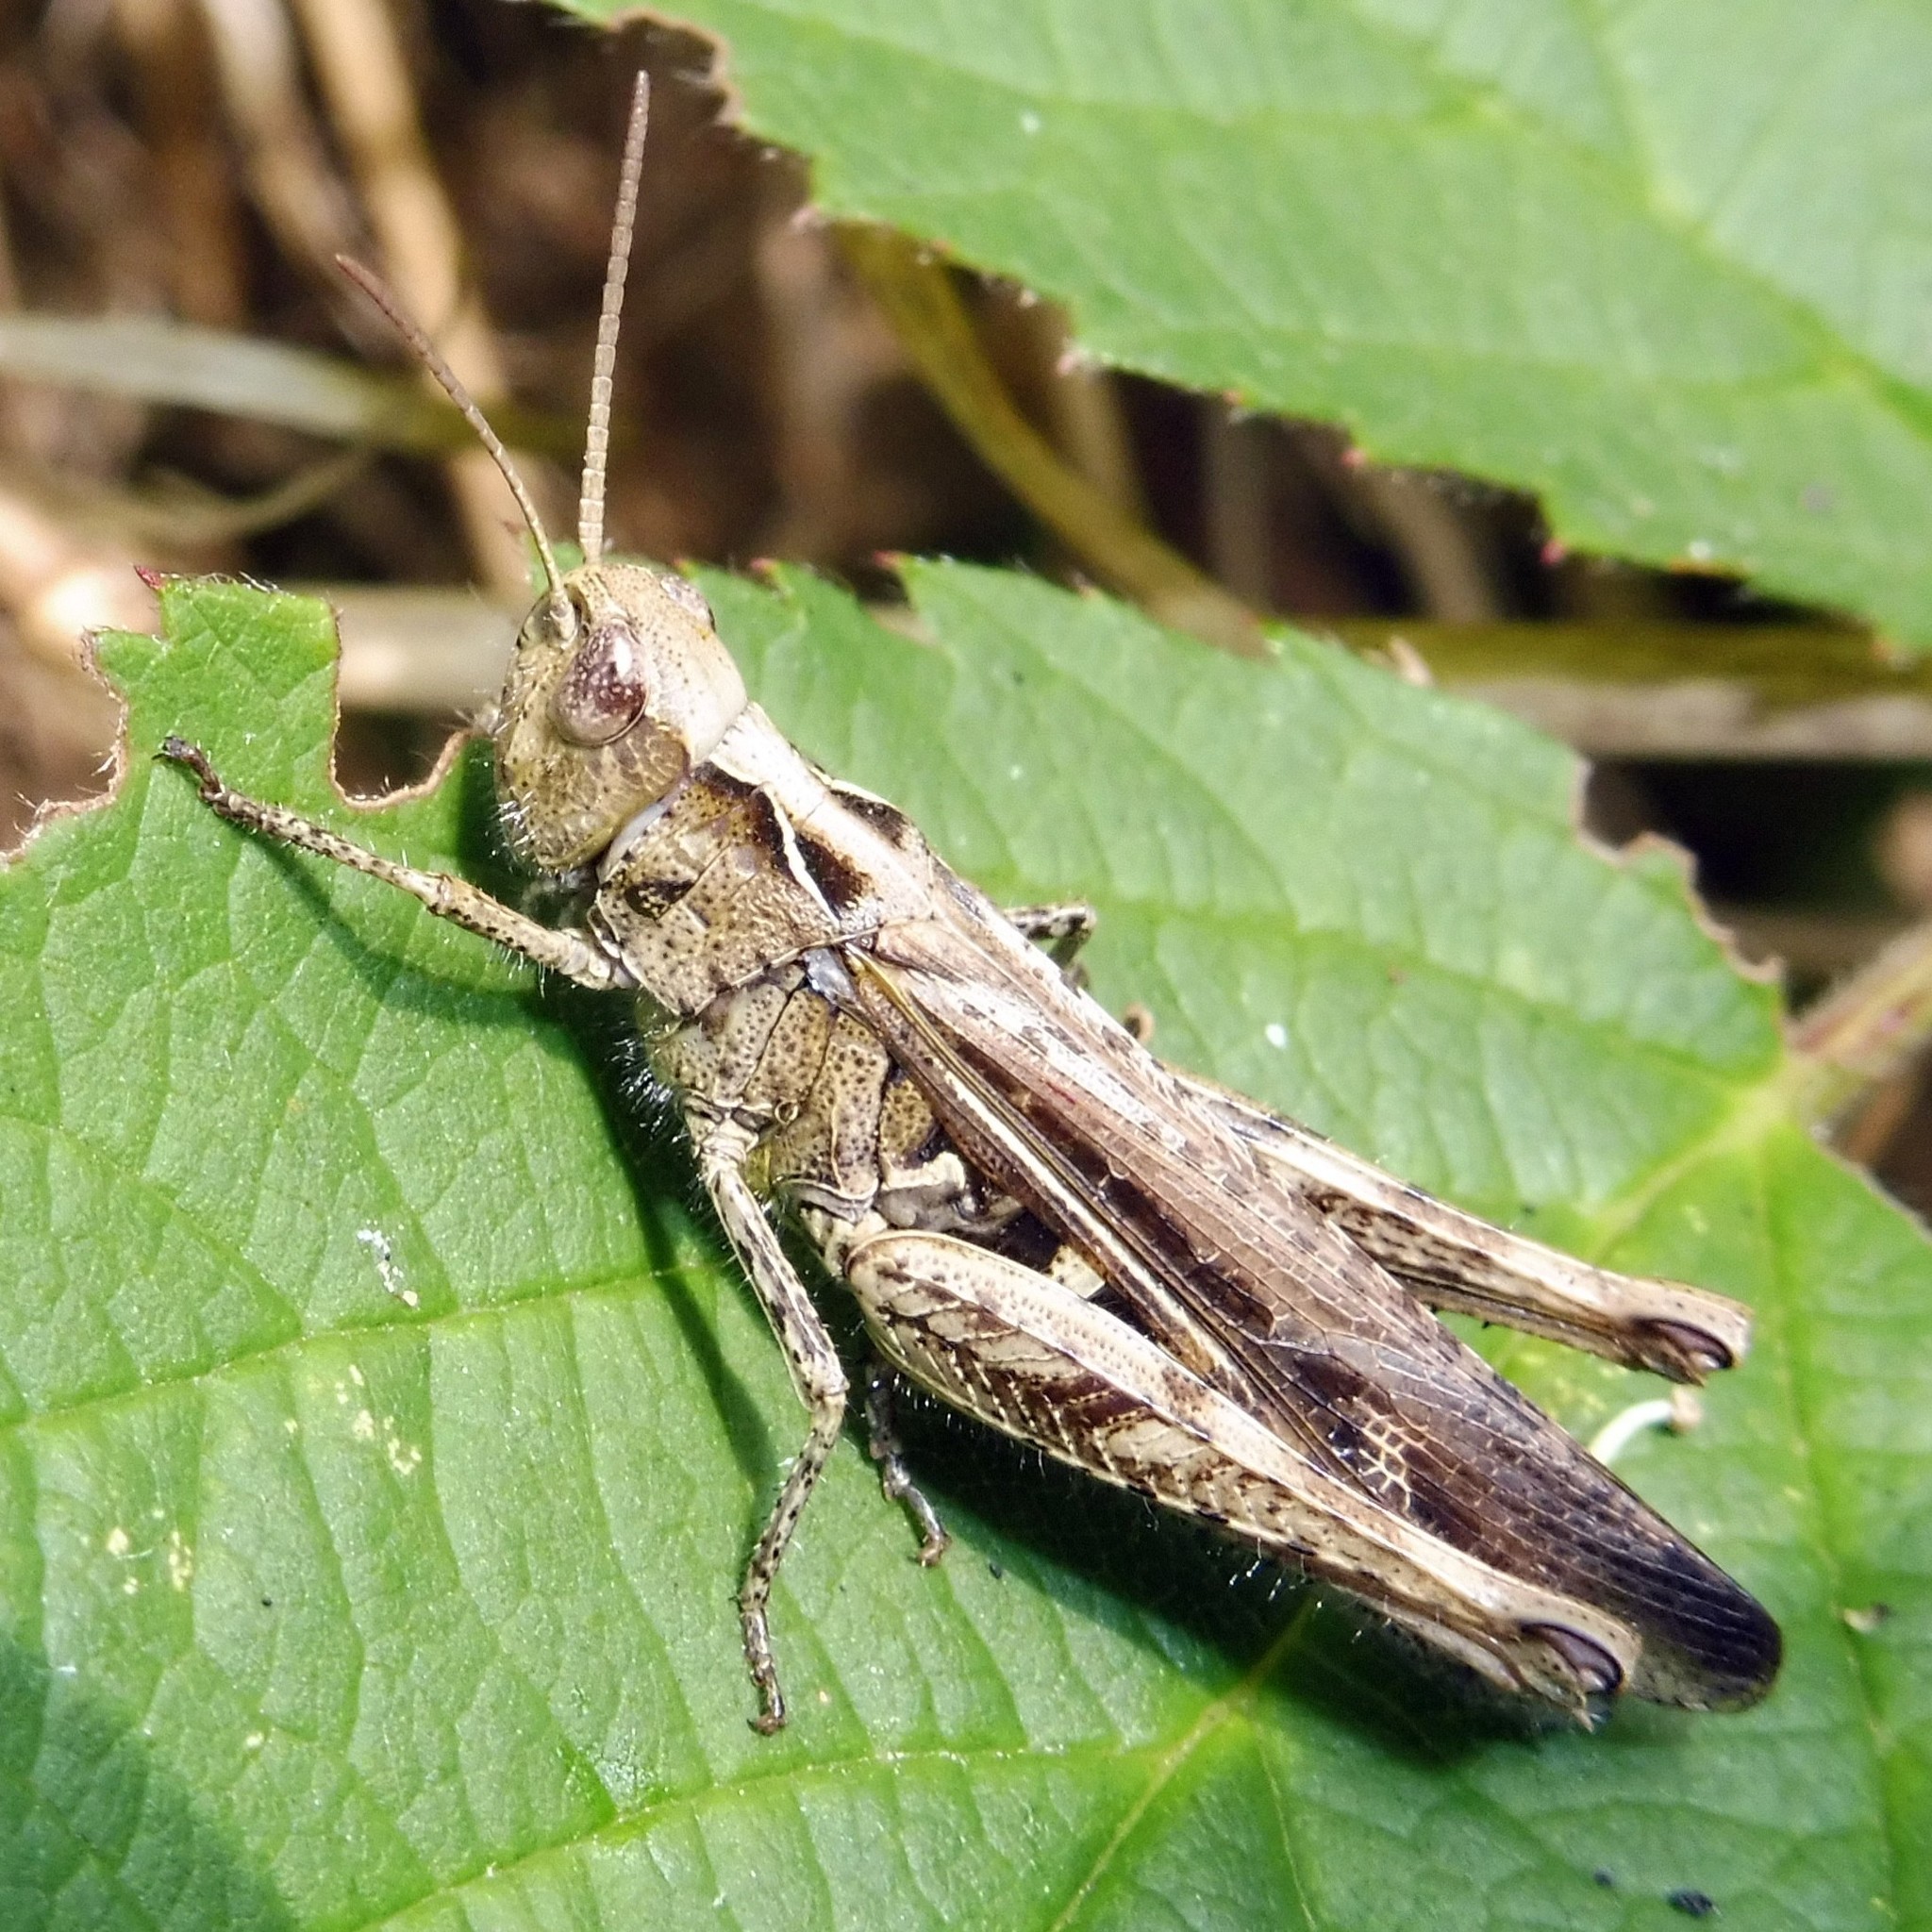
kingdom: Animalia
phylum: Arthropoda
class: Insecta
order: Orthoptera
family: Acrididae
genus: Chorthippus
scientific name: Chorthippus brunneus
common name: Field grasshopper
